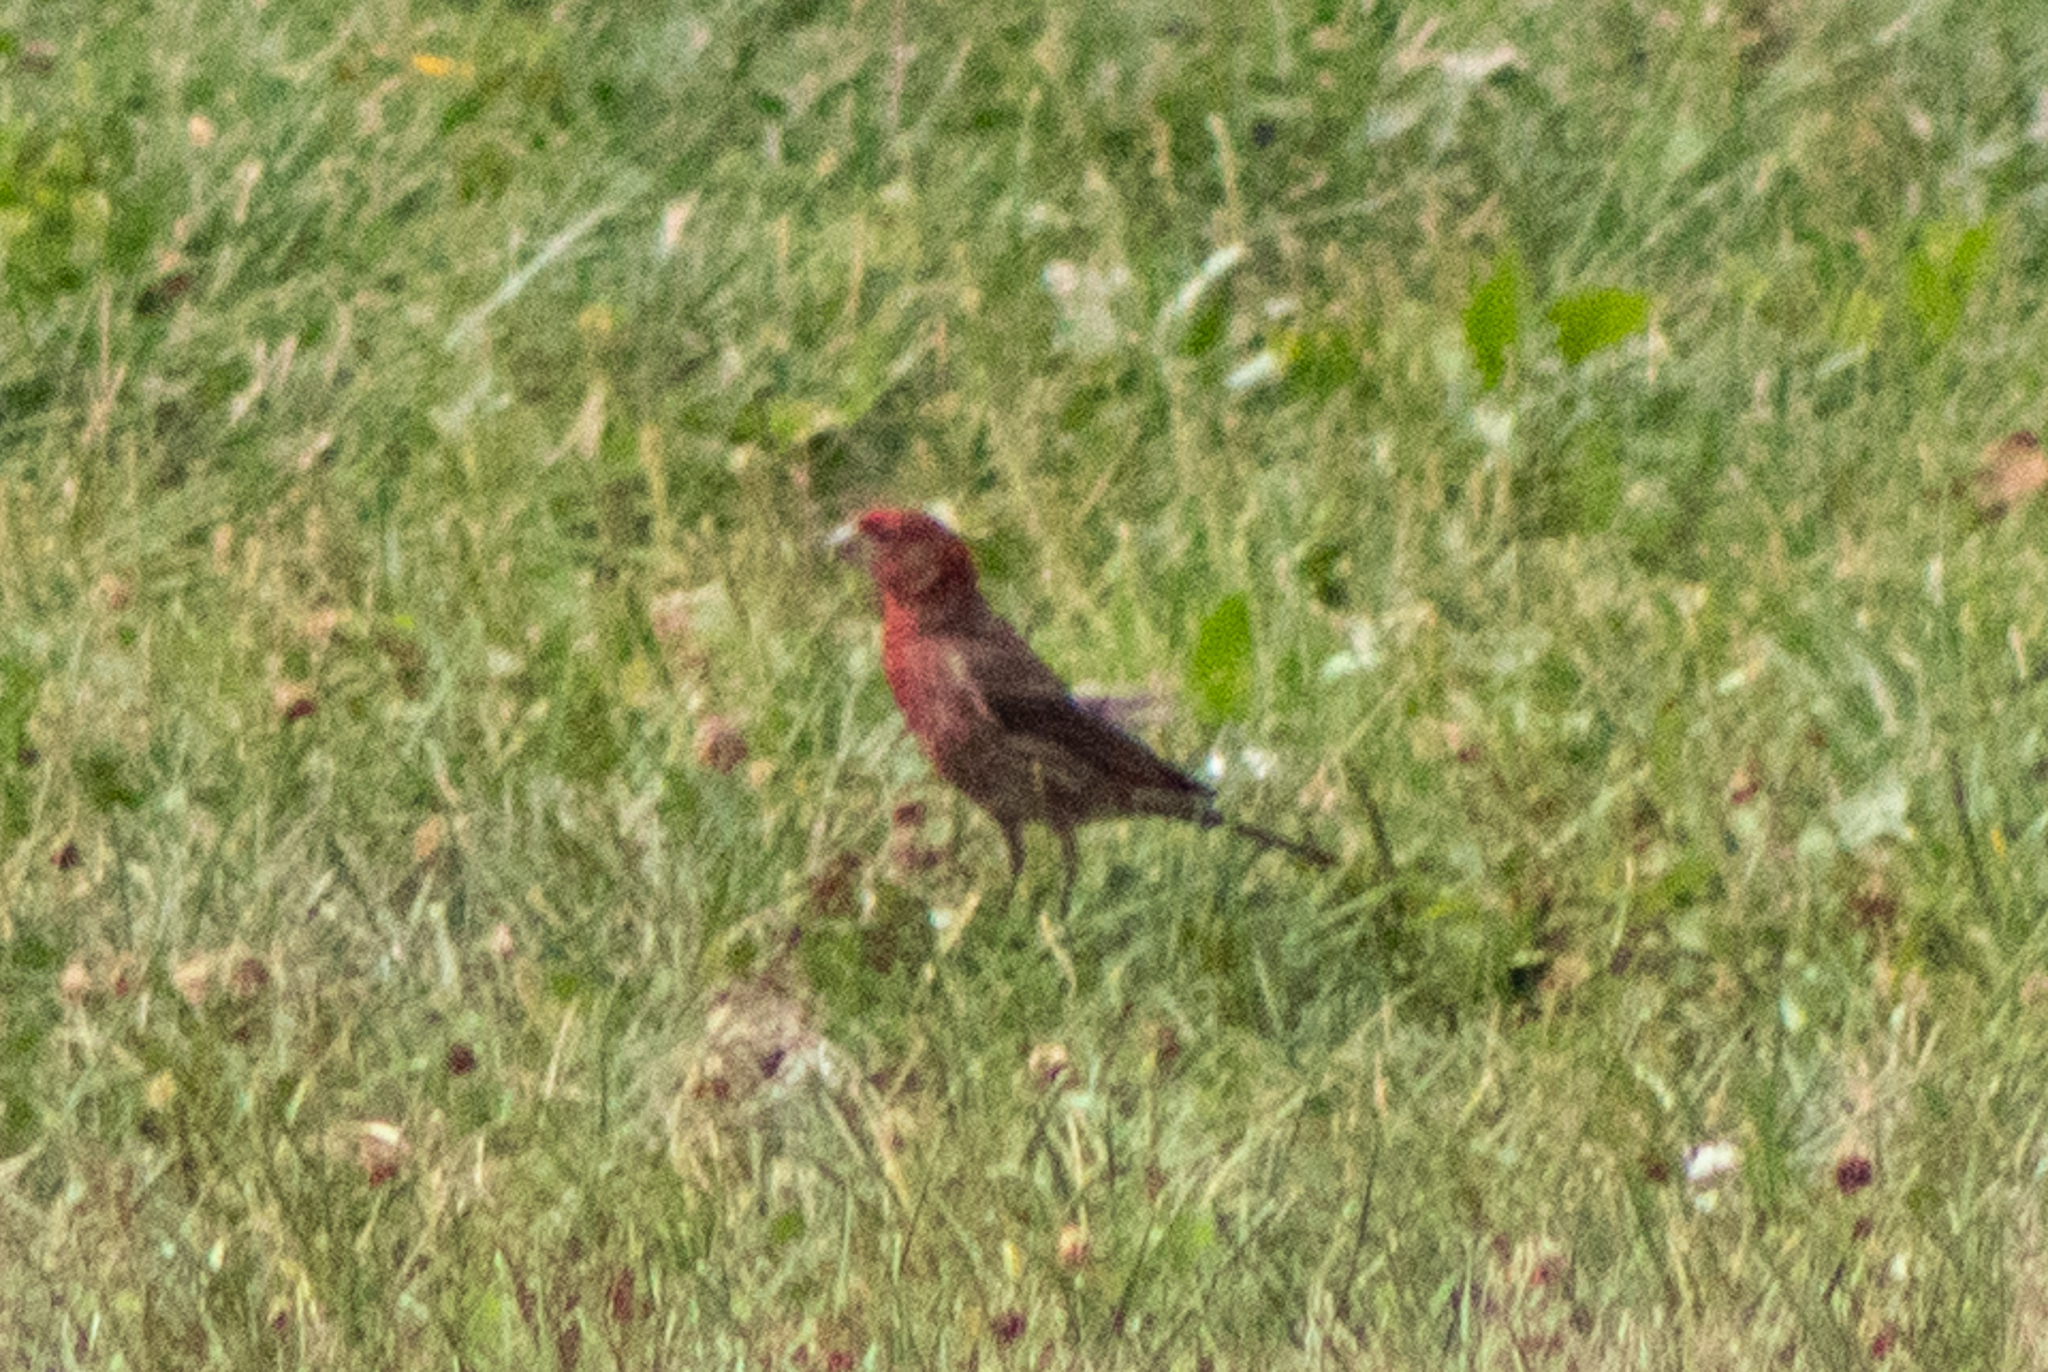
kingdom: Animalia
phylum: Chordata
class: Aves
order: Passeriformes
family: Fringillidae
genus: Haemorhous
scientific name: Haemorhous mexicanus
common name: House finch
